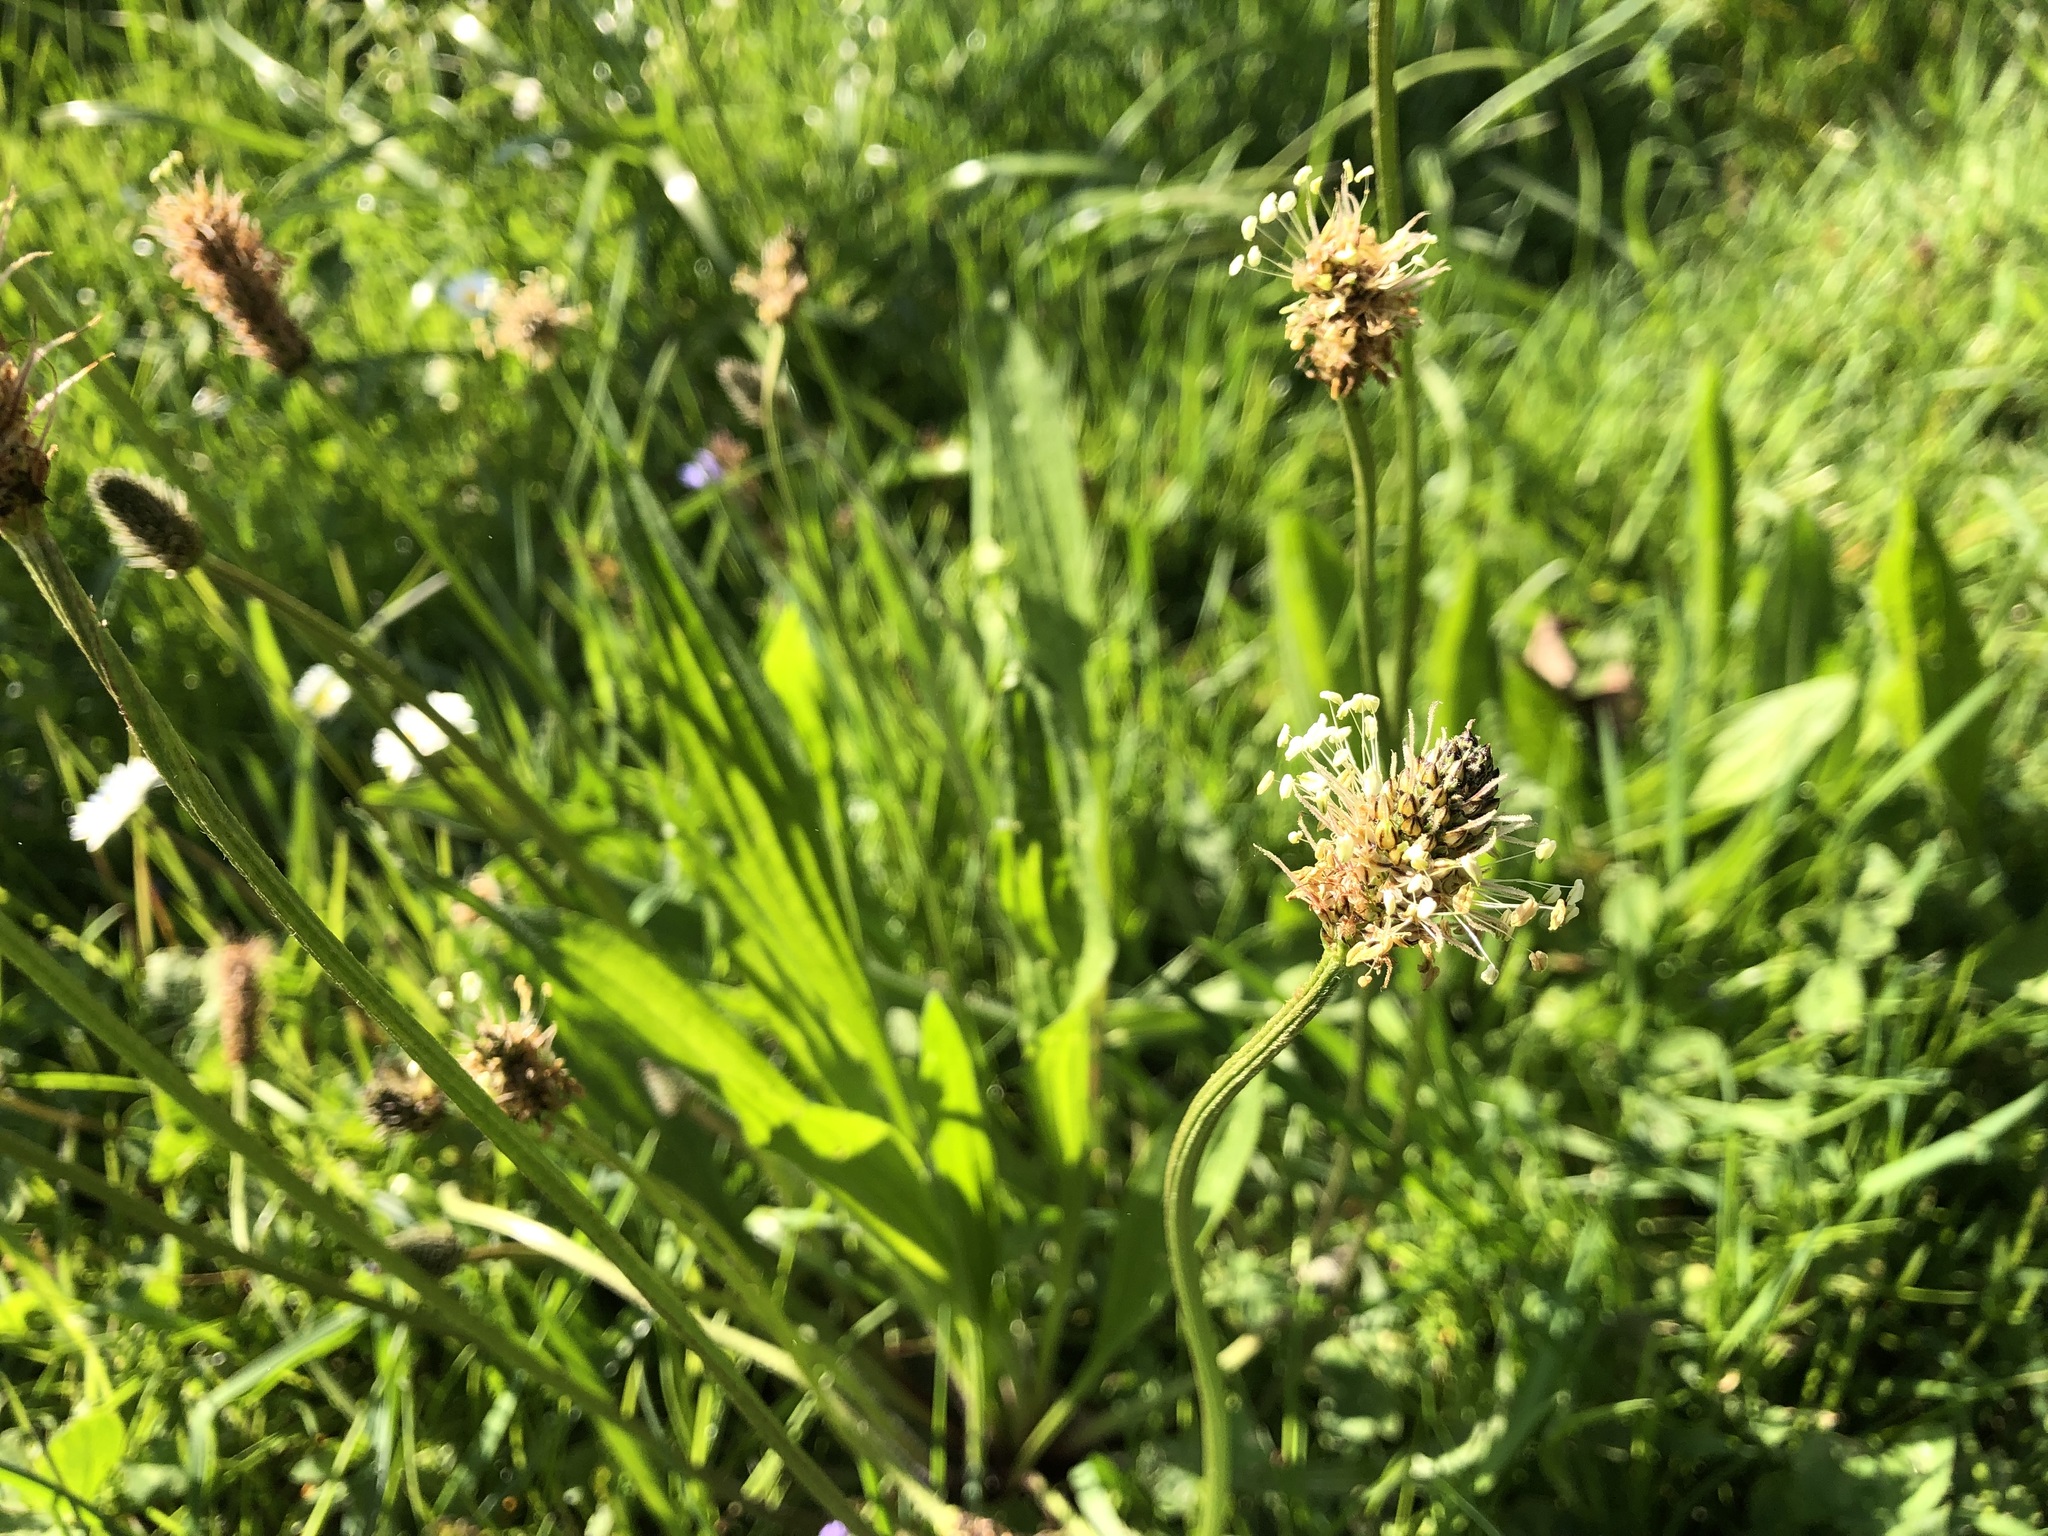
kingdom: Plantae
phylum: Tracheophyta
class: Magnoliopsida
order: Lamiales
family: Plantaginaceae
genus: Plantago
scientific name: Plantago lanceolata
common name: Ribwort plantain
